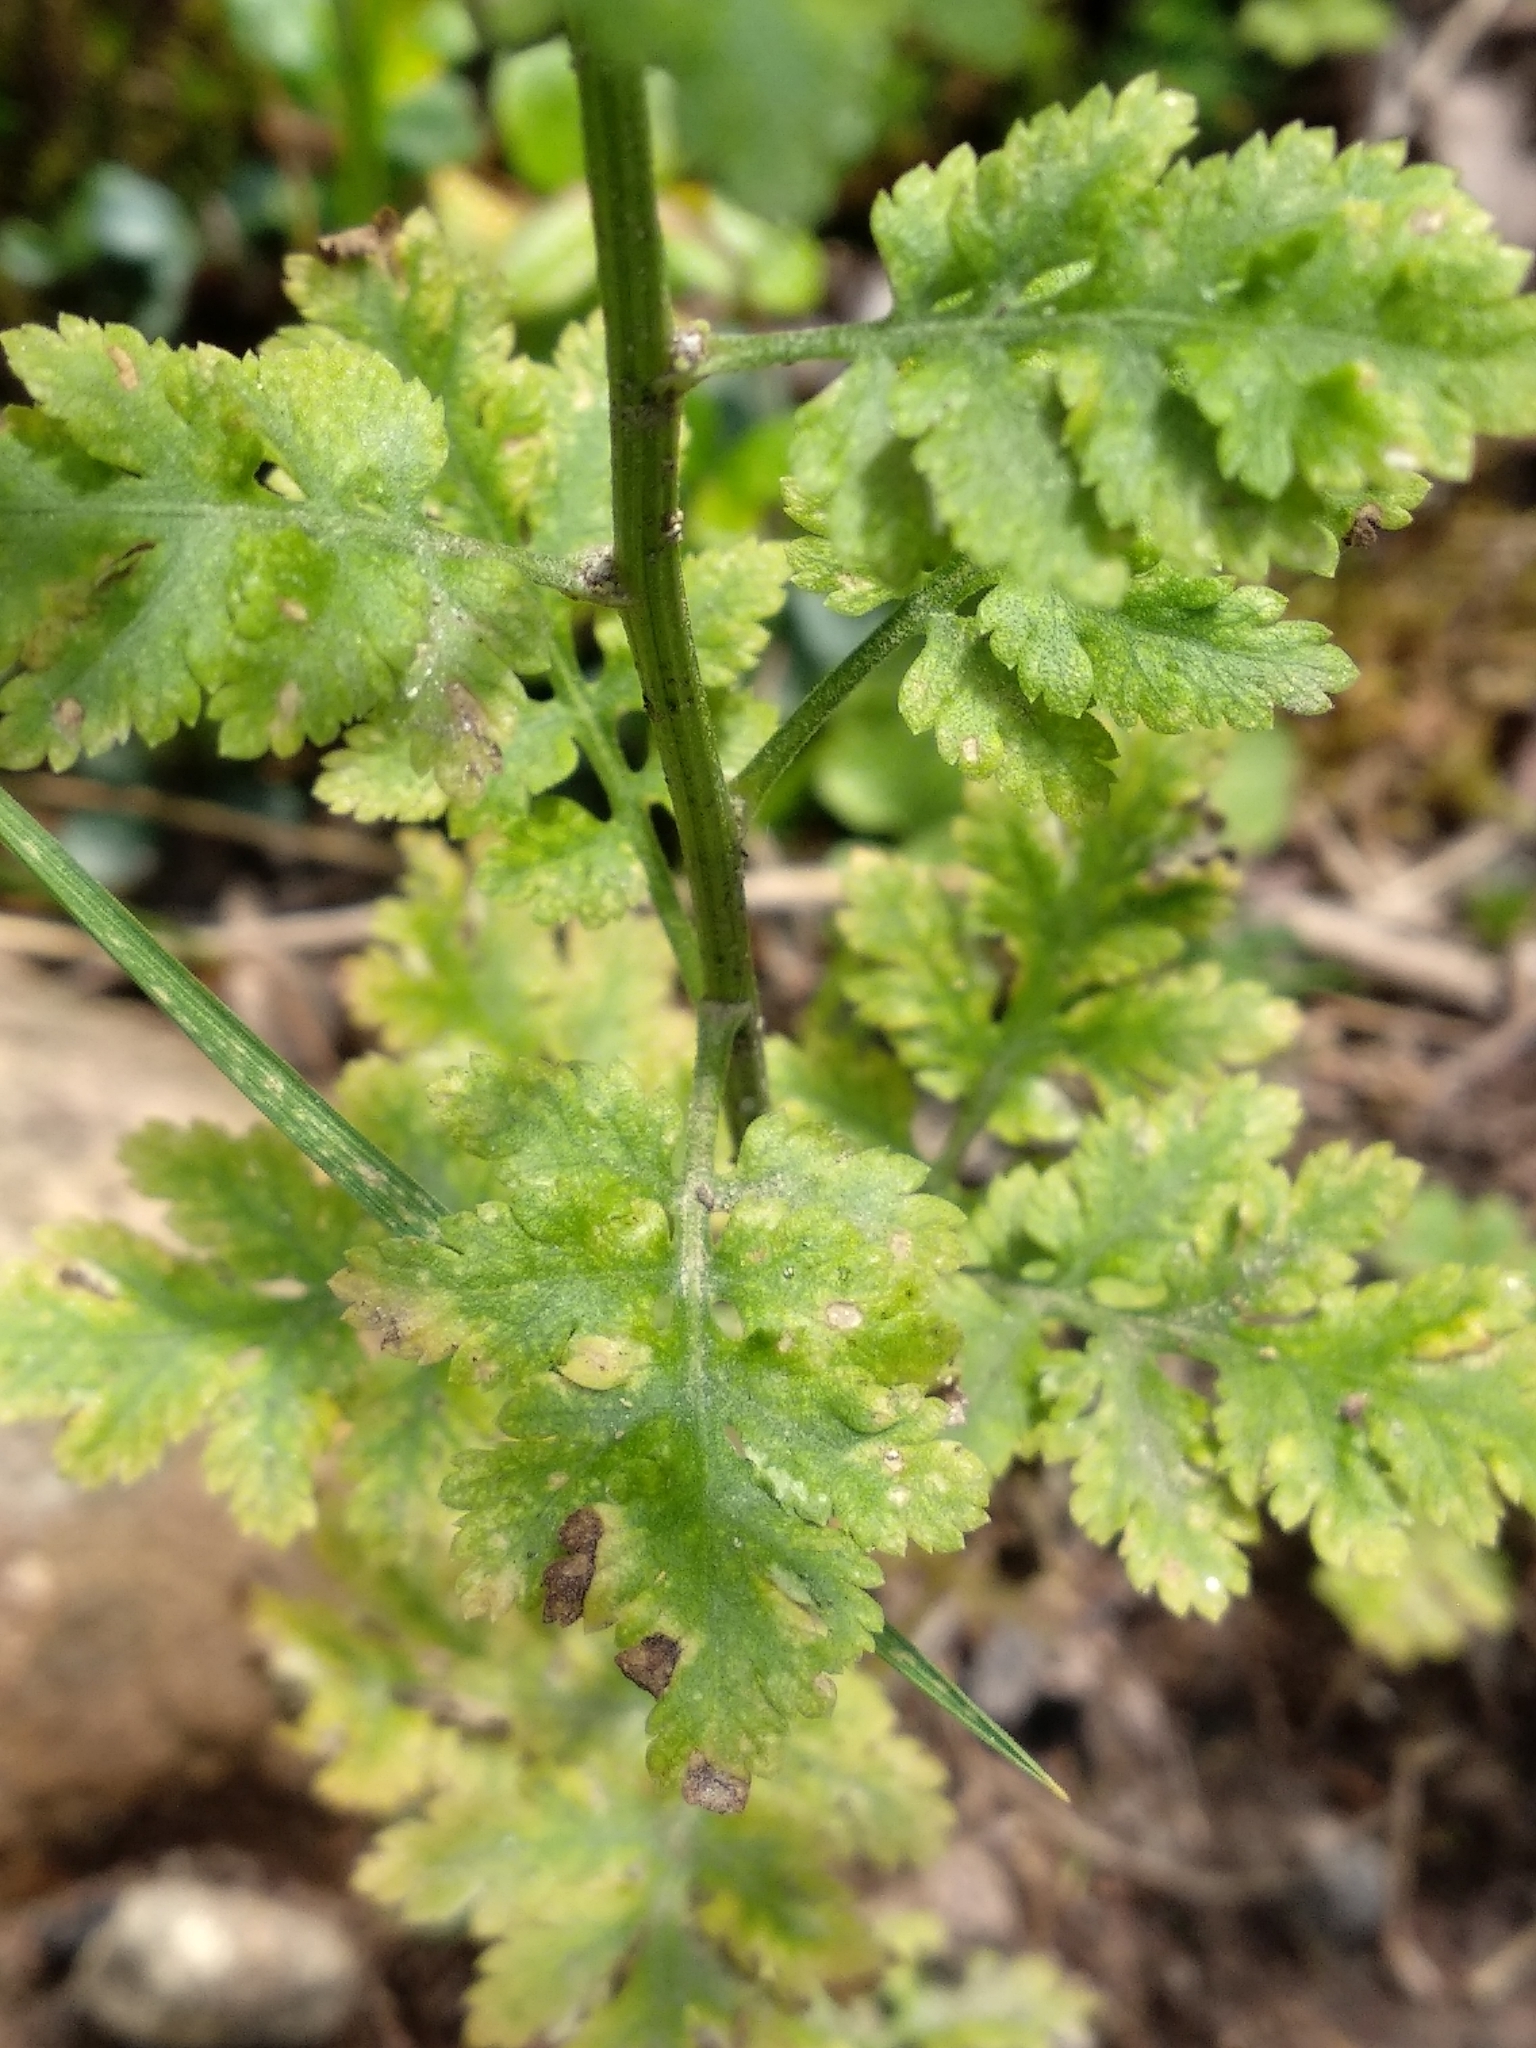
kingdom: Plantae
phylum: Tracheophyta
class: Magnoliopsida
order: Asterales
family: Asteraceae
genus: Tanacetum
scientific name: Tanacetum parthenium
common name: Feverfew
